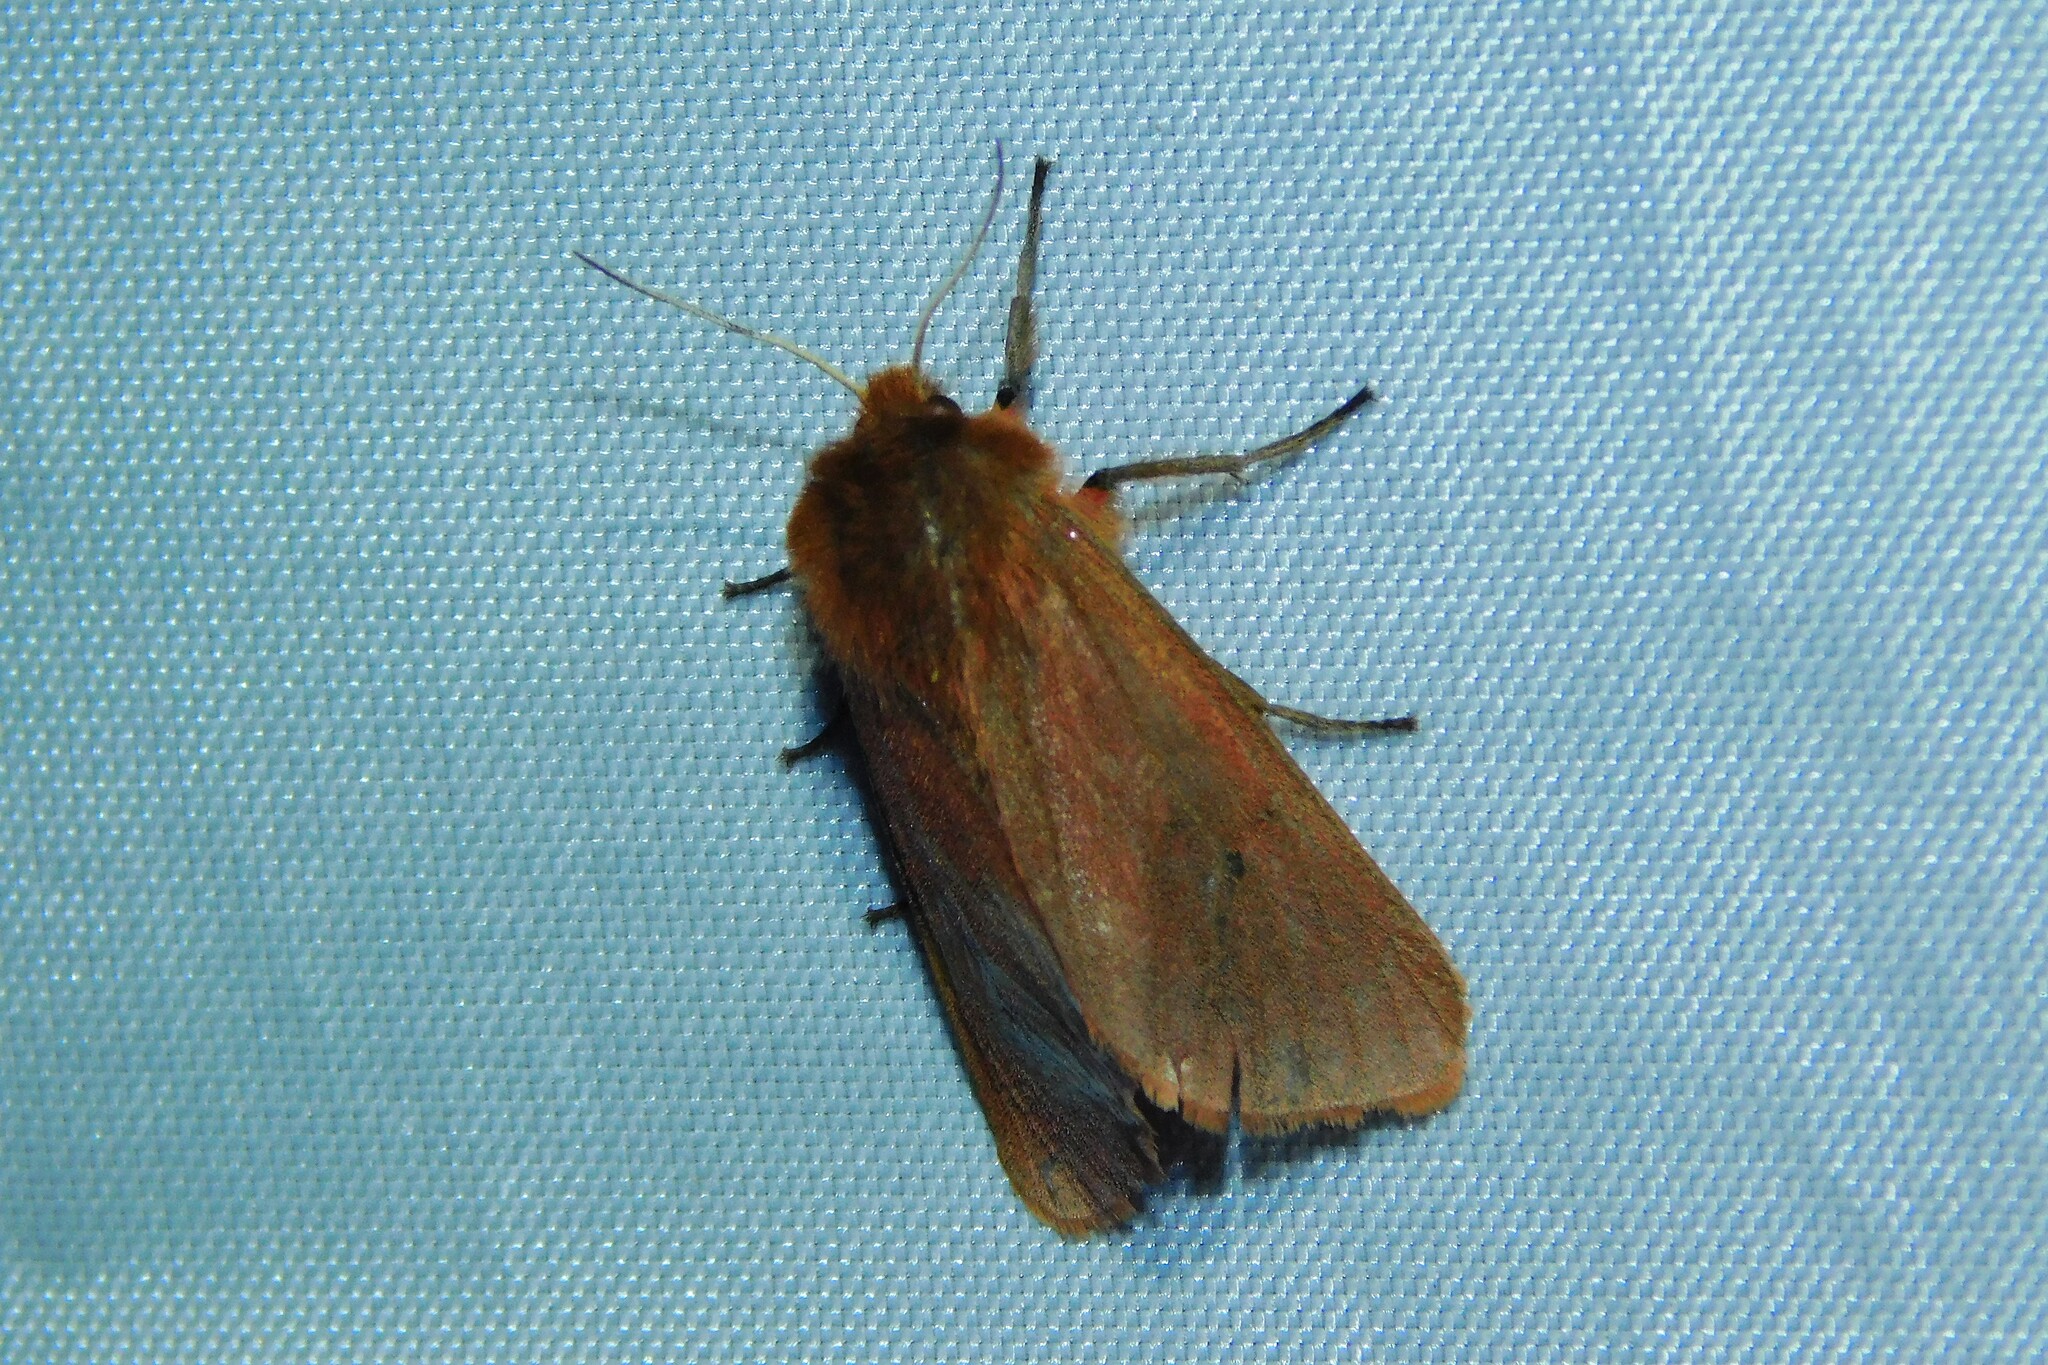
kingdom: Animalia
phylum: Arthropoda
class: Insecta
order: Lepidoptera
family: Erebidae
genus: Phragmatobia
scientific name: Phragmatobia fuliginosa
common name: Ruby tiger
